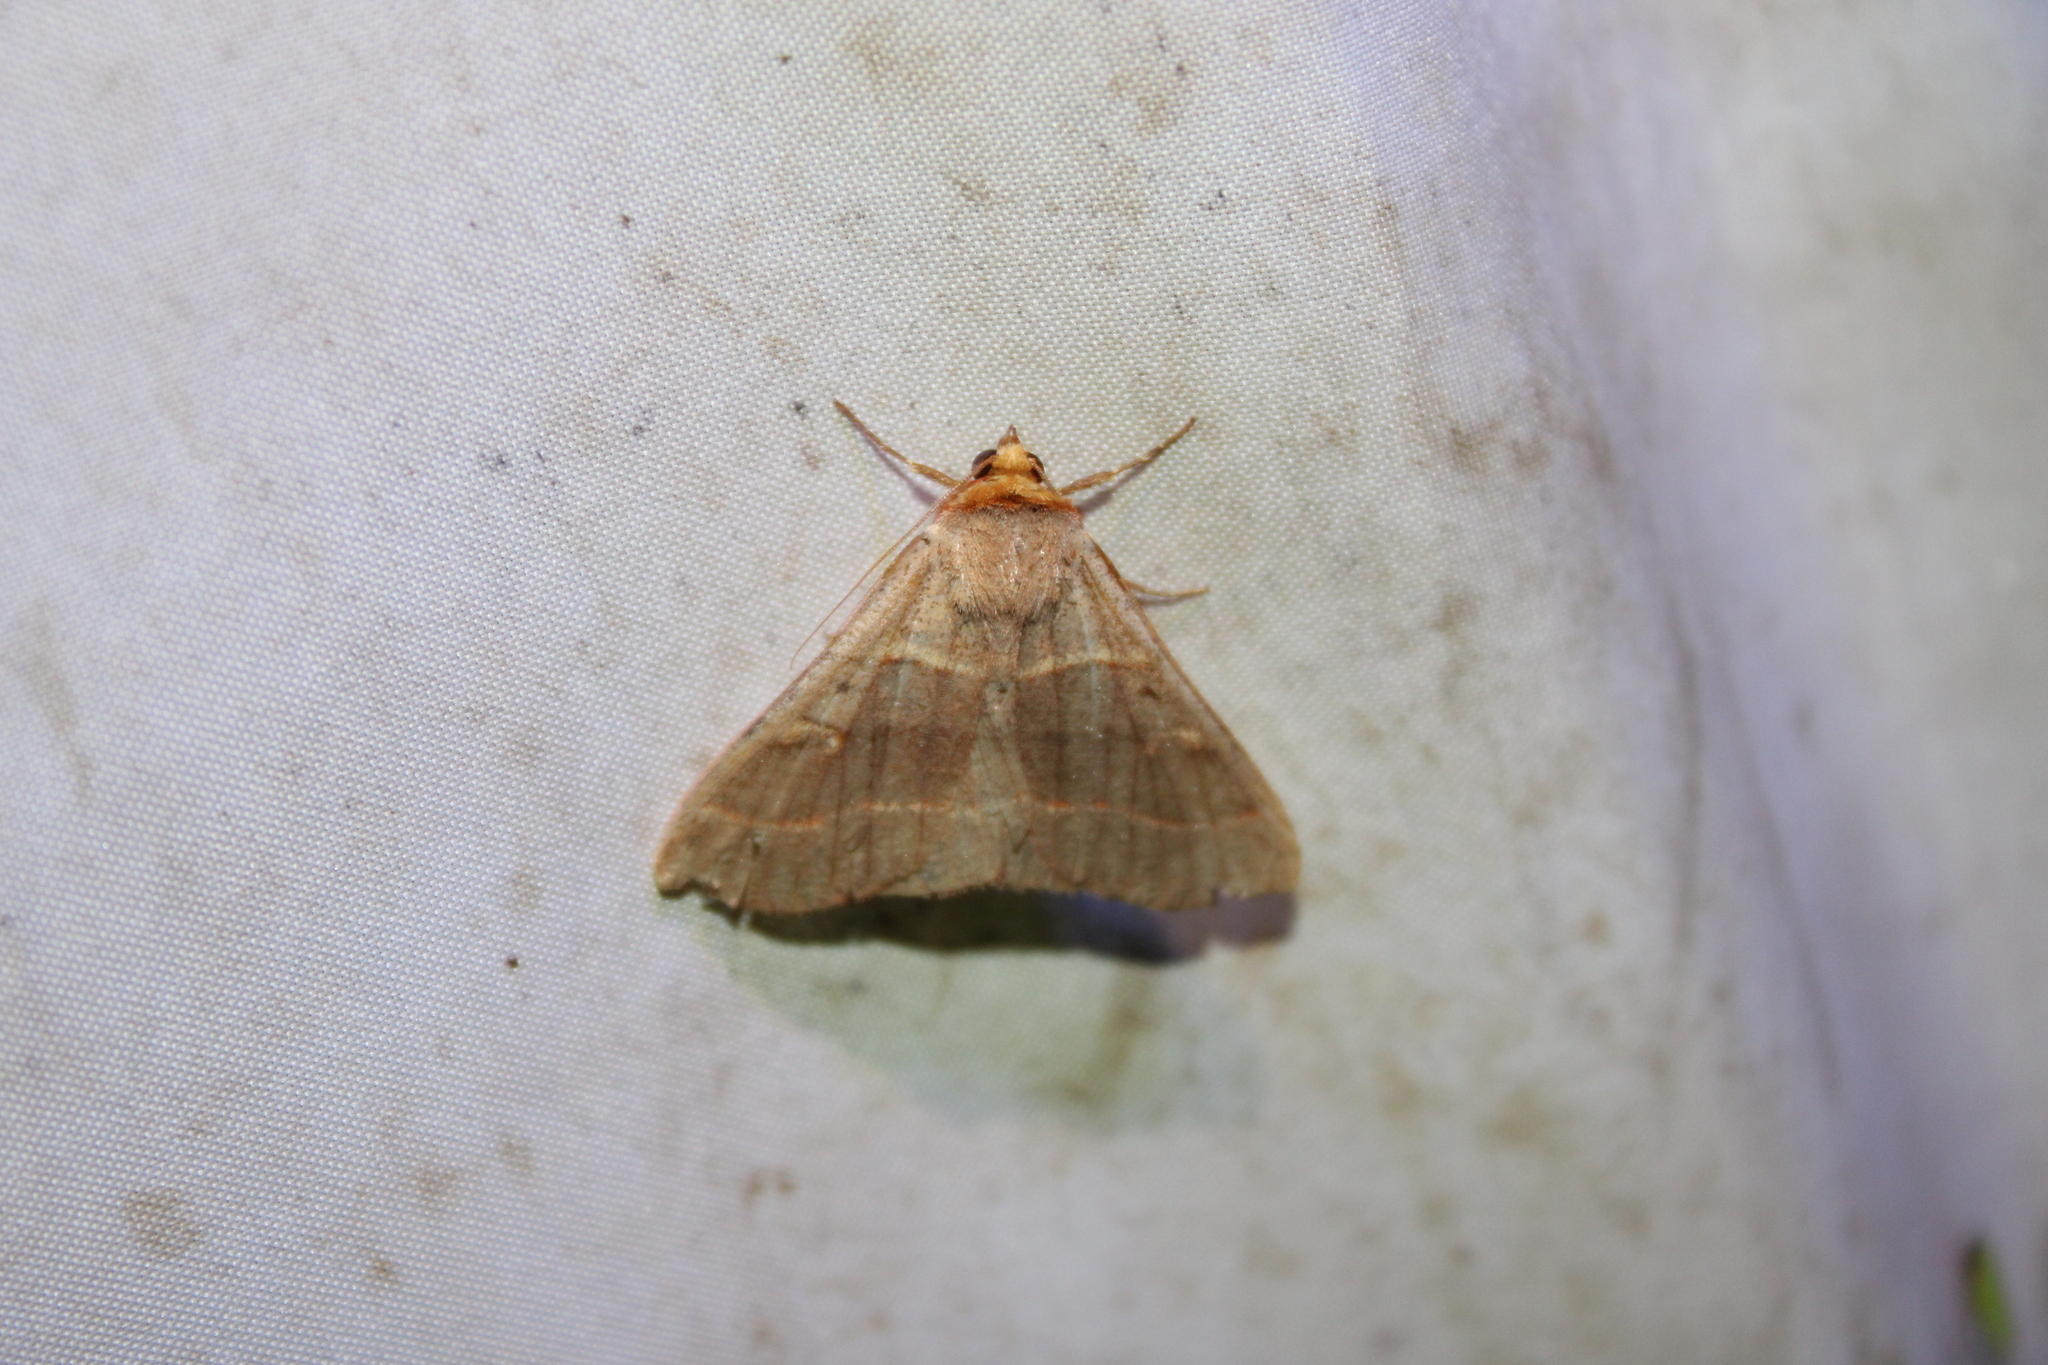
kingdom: Animalia
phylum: Arthropoda
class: Insecta
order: Lepidoptera
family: Erebidae
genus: Panopoda
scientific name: Panopoda rufimargo
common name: Red-lined panopoda moth
